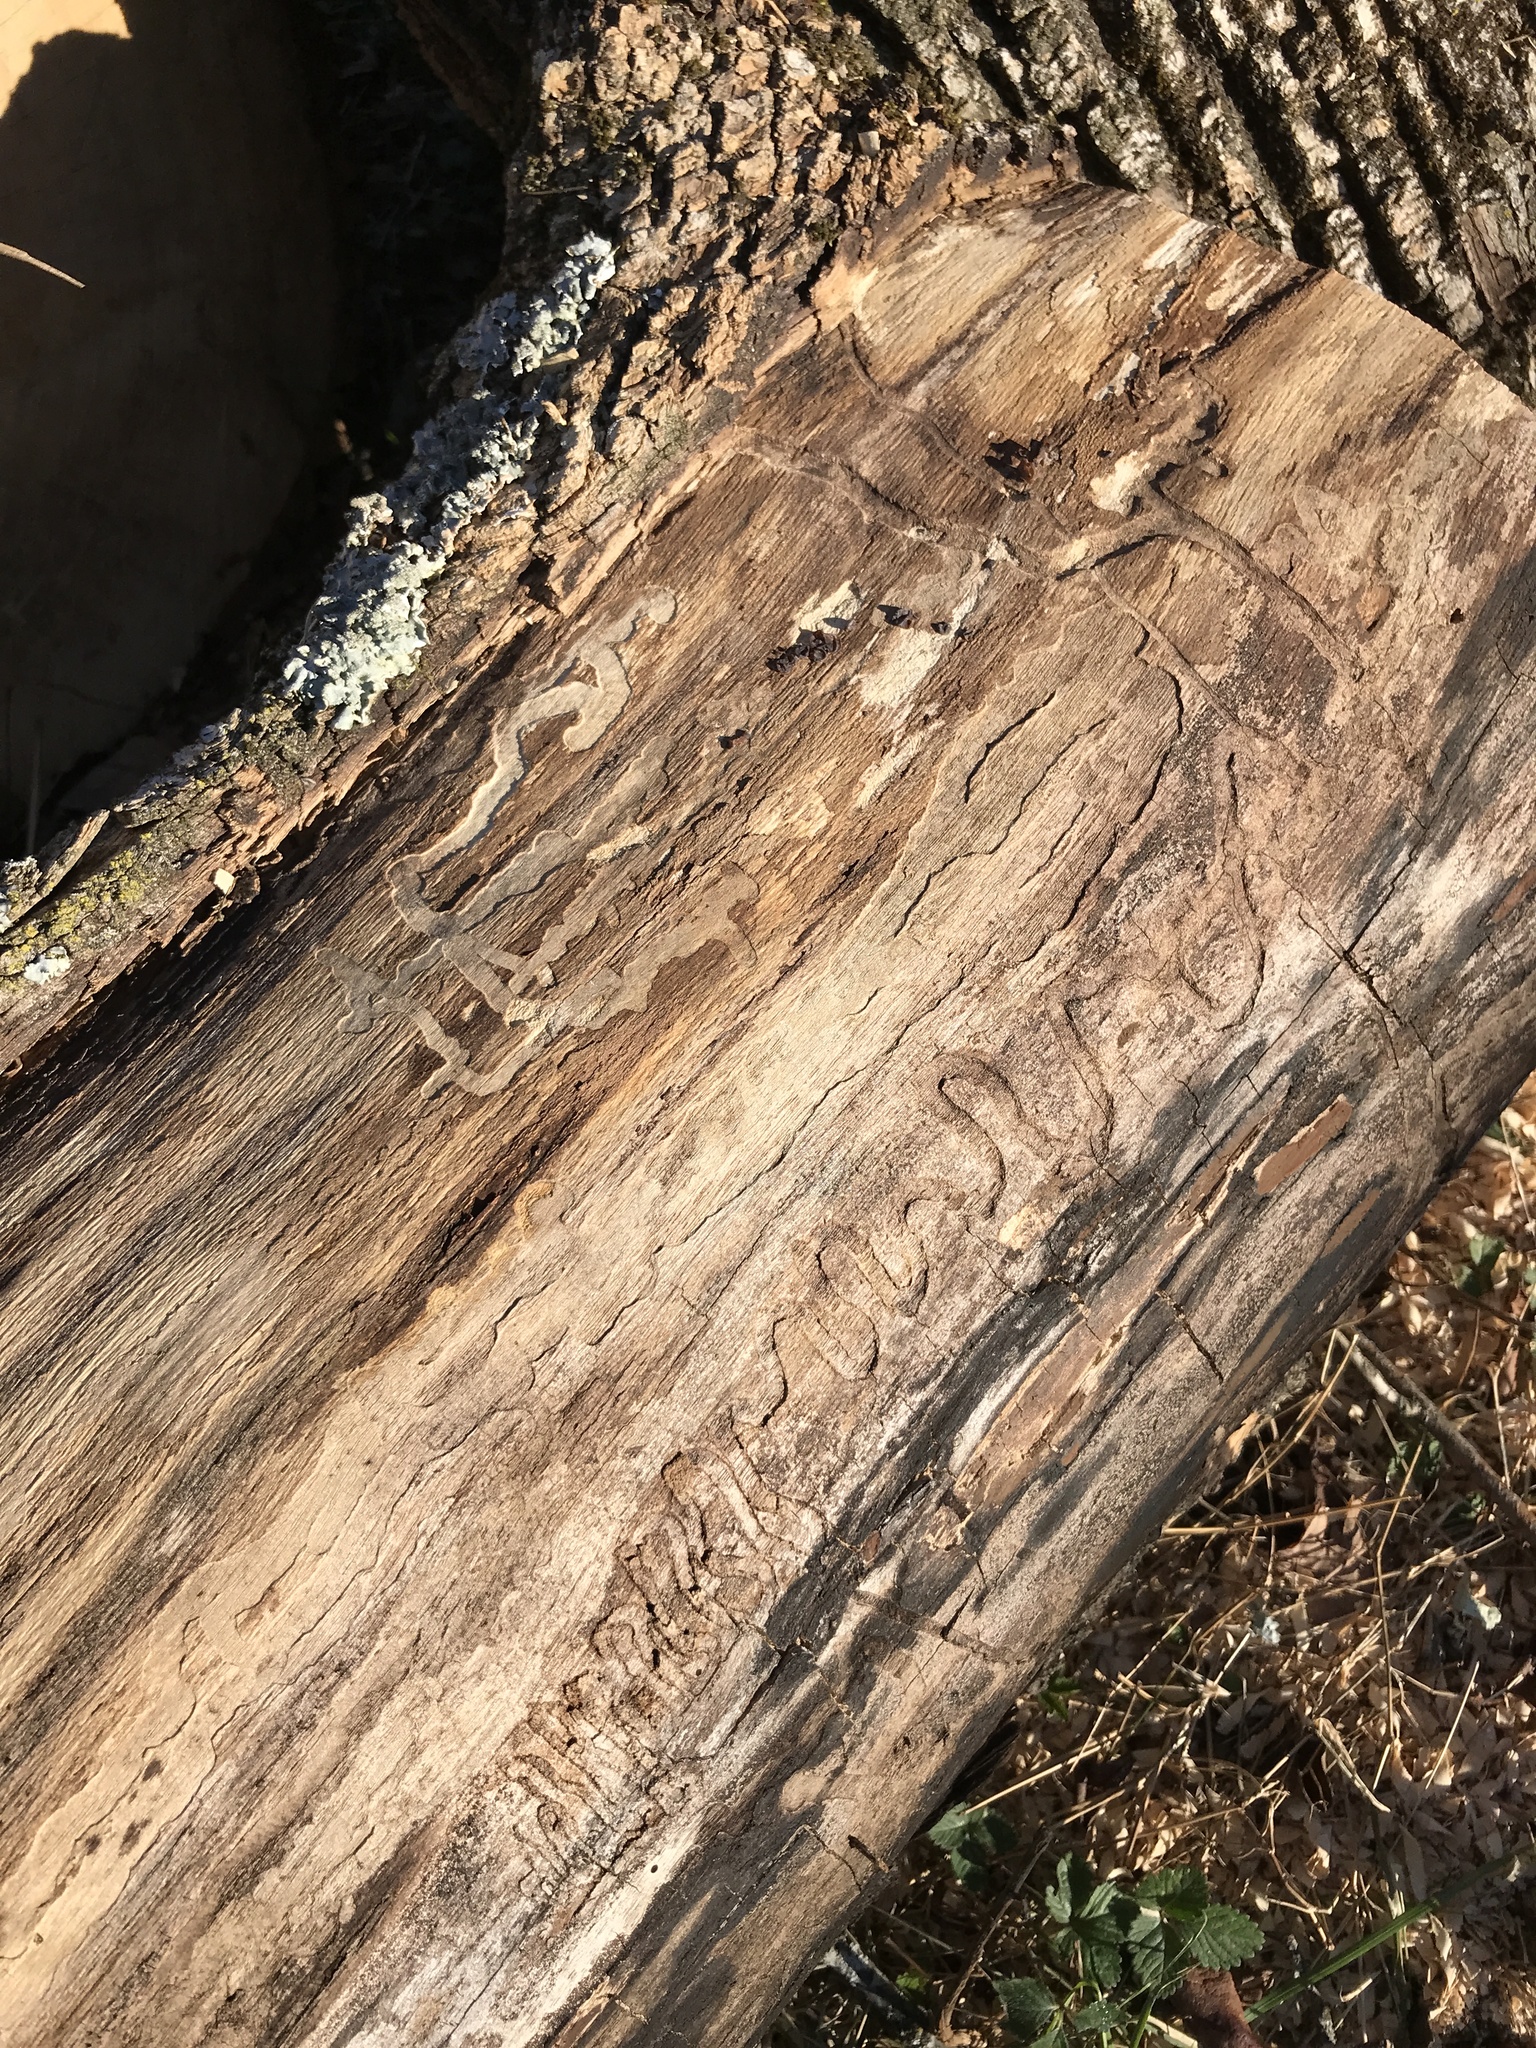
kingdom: Animalia
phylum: Arthropoda
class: Insecta
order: Coleoptera
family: Buprestidae
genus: Agrilus
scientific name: Agrilus planipennis
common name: Emerald ash borer
